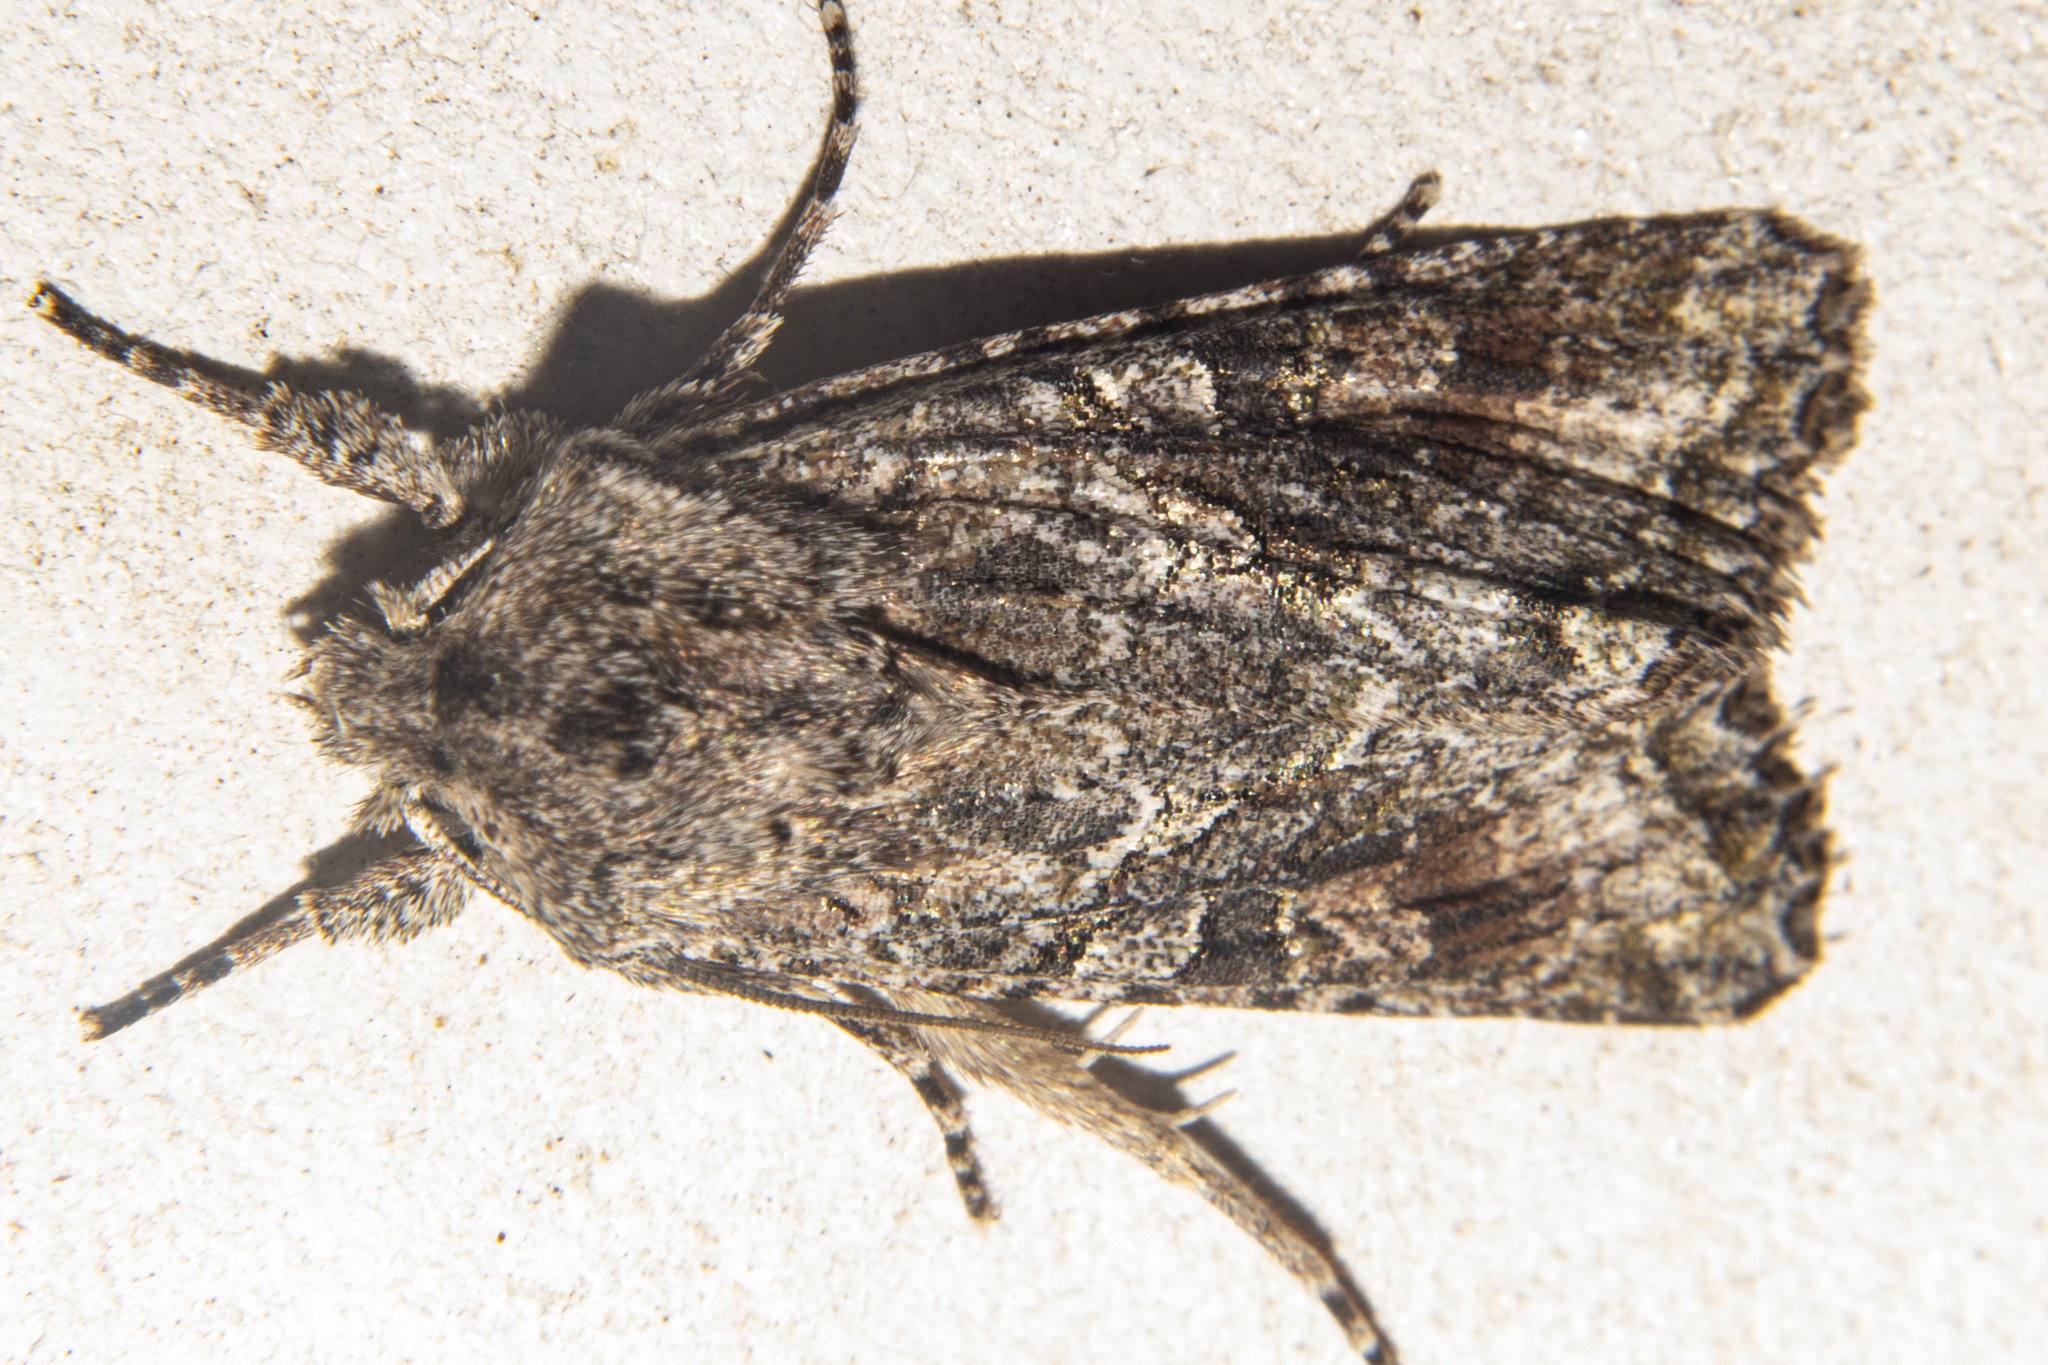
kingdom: Animalia
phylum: Arthropoda
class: Insecta
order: Lepidoptera
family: Noctuidae
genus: Ichneutica
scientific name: Ichneutica mutans
